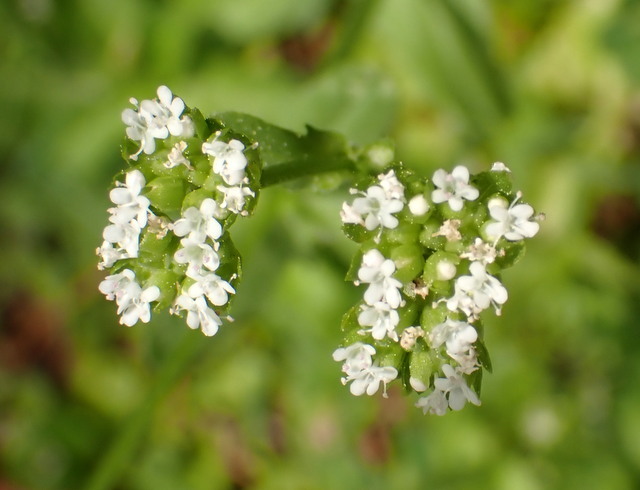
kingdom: Plantae
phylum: Tracheophyta
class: Magnoliopsida
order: Dipsacales
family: Caprifoliaceae
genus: Valerianella
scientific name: Valerianella radiata
